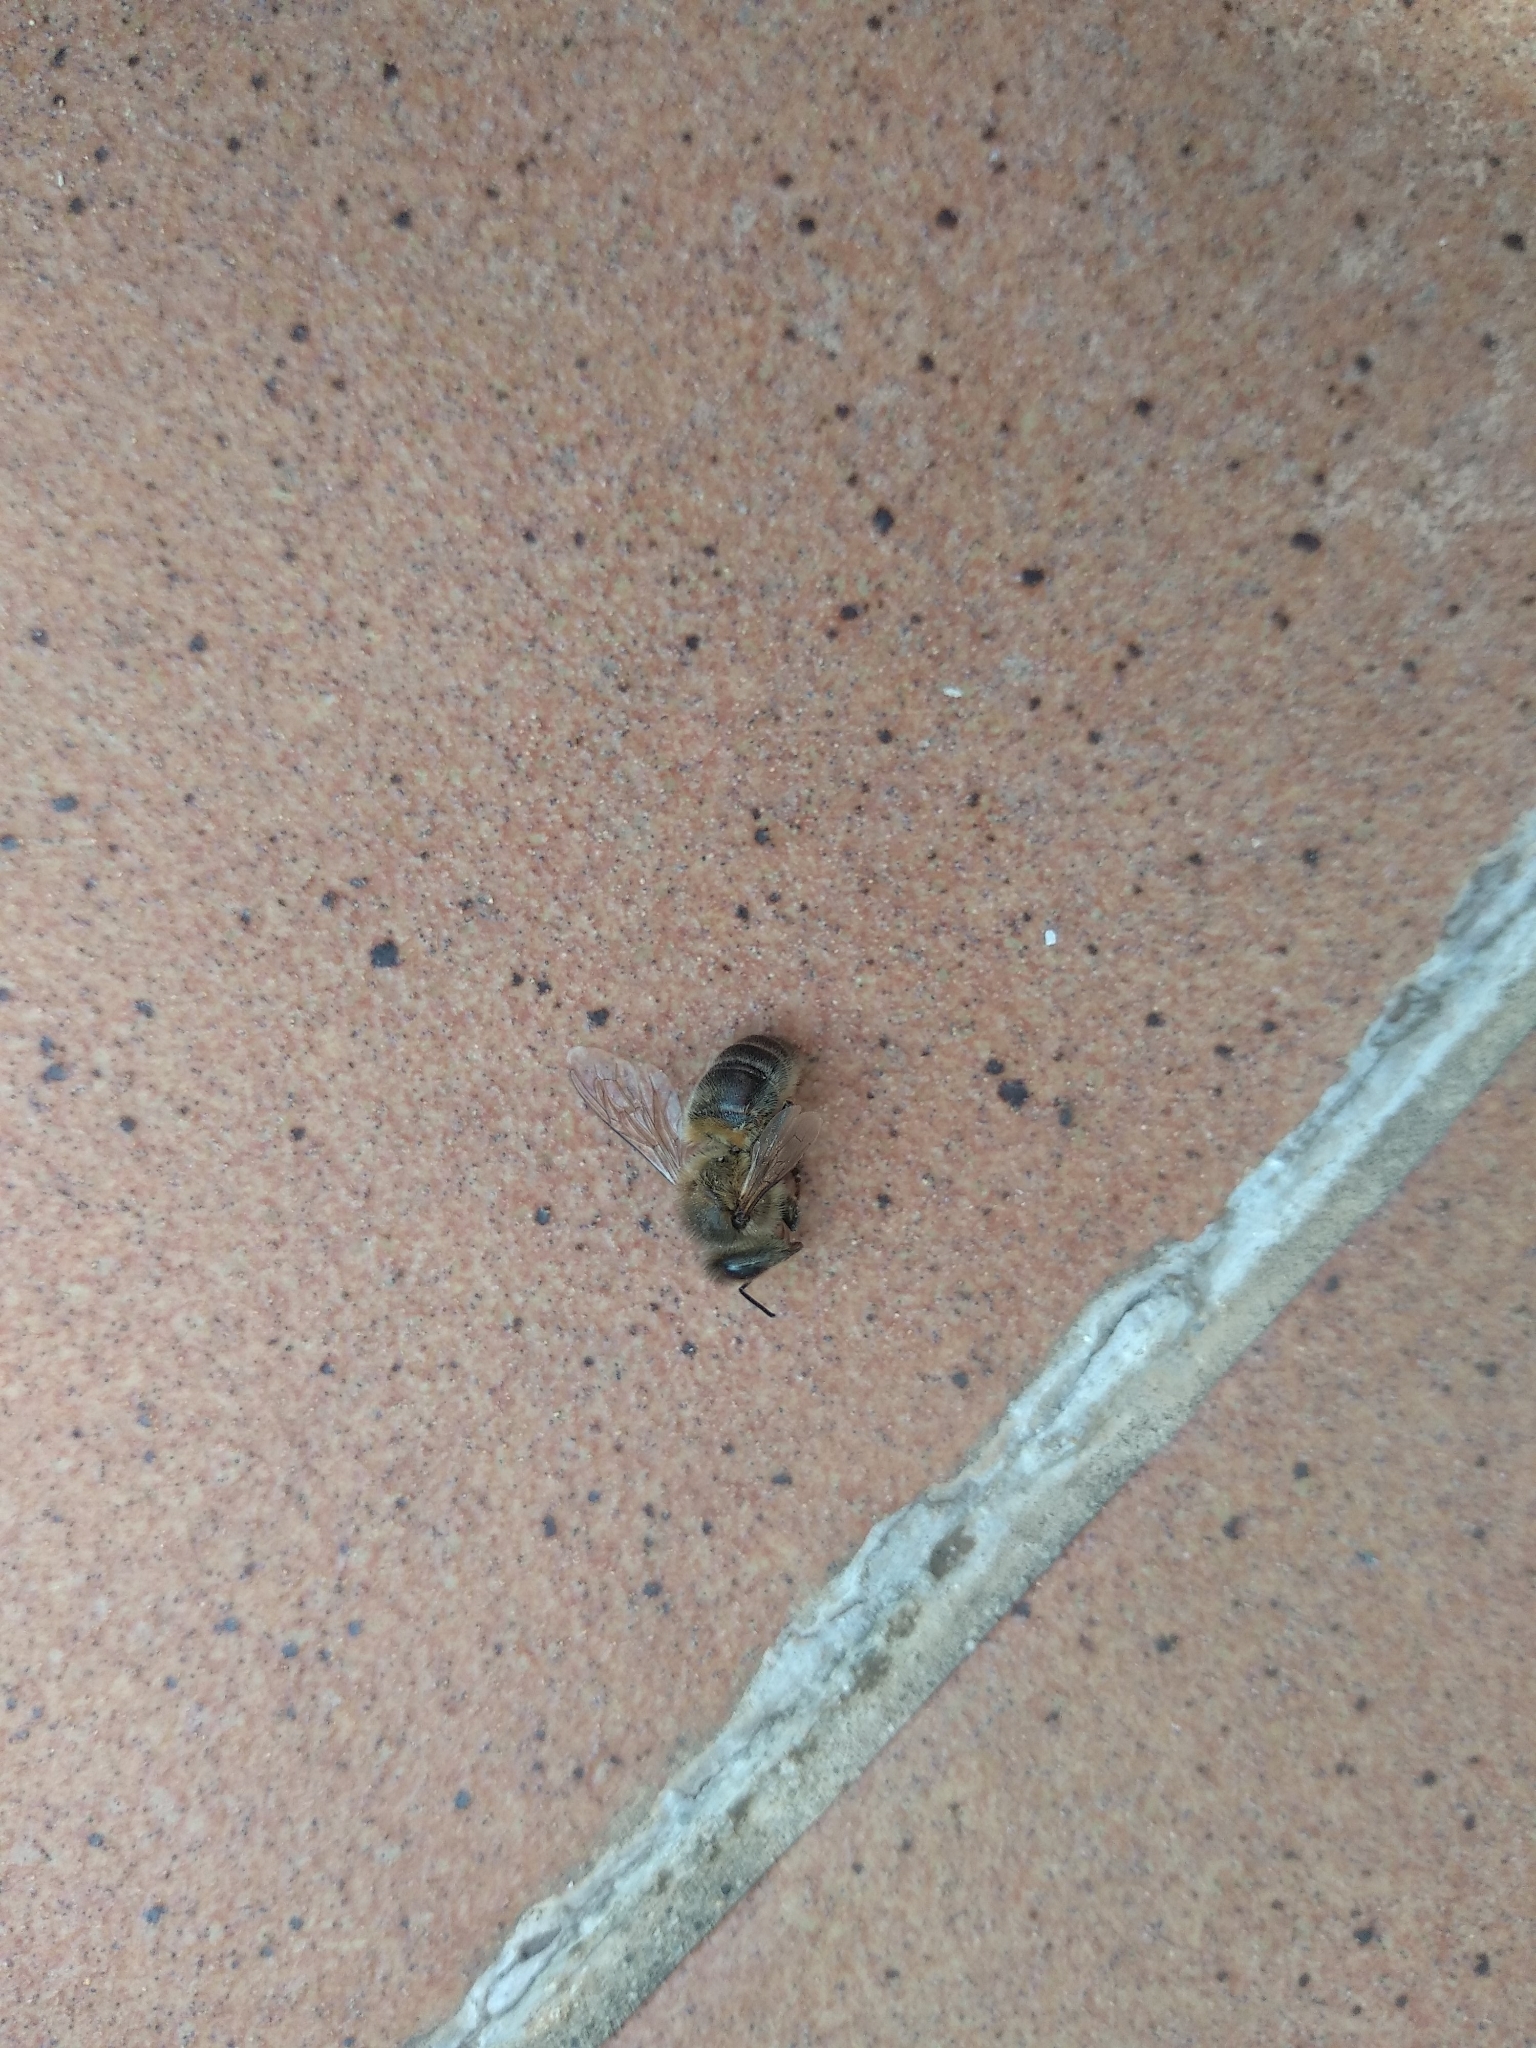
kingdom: Animalia
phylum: Arthropoda
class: Insecta
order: Hymenoptera
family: Apidae
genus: Apis
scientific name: Apis mellifera
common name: Honey bee
